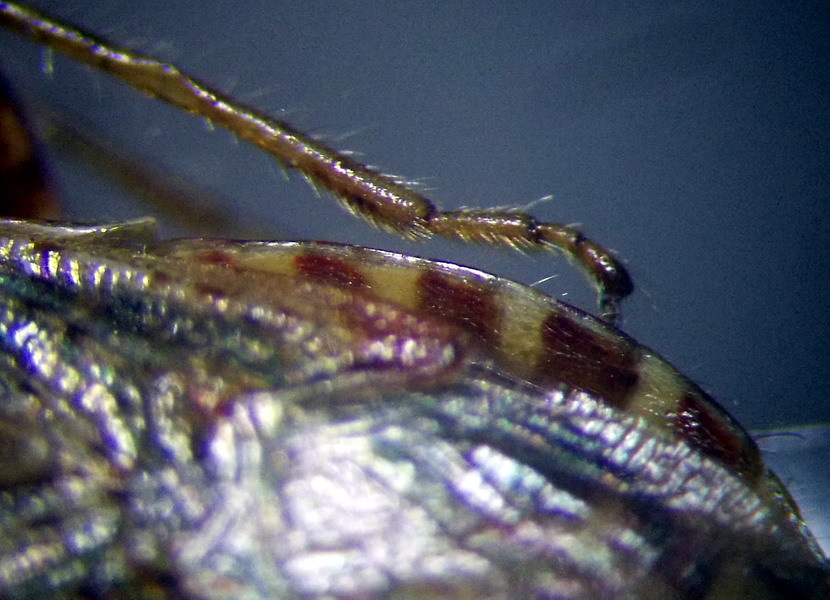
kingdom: Animalia
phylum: Arthropoda
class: Insecta
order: Hemiptera
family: Rhopalidae
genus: Rhopalus
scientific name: Rhopalus conspersus
